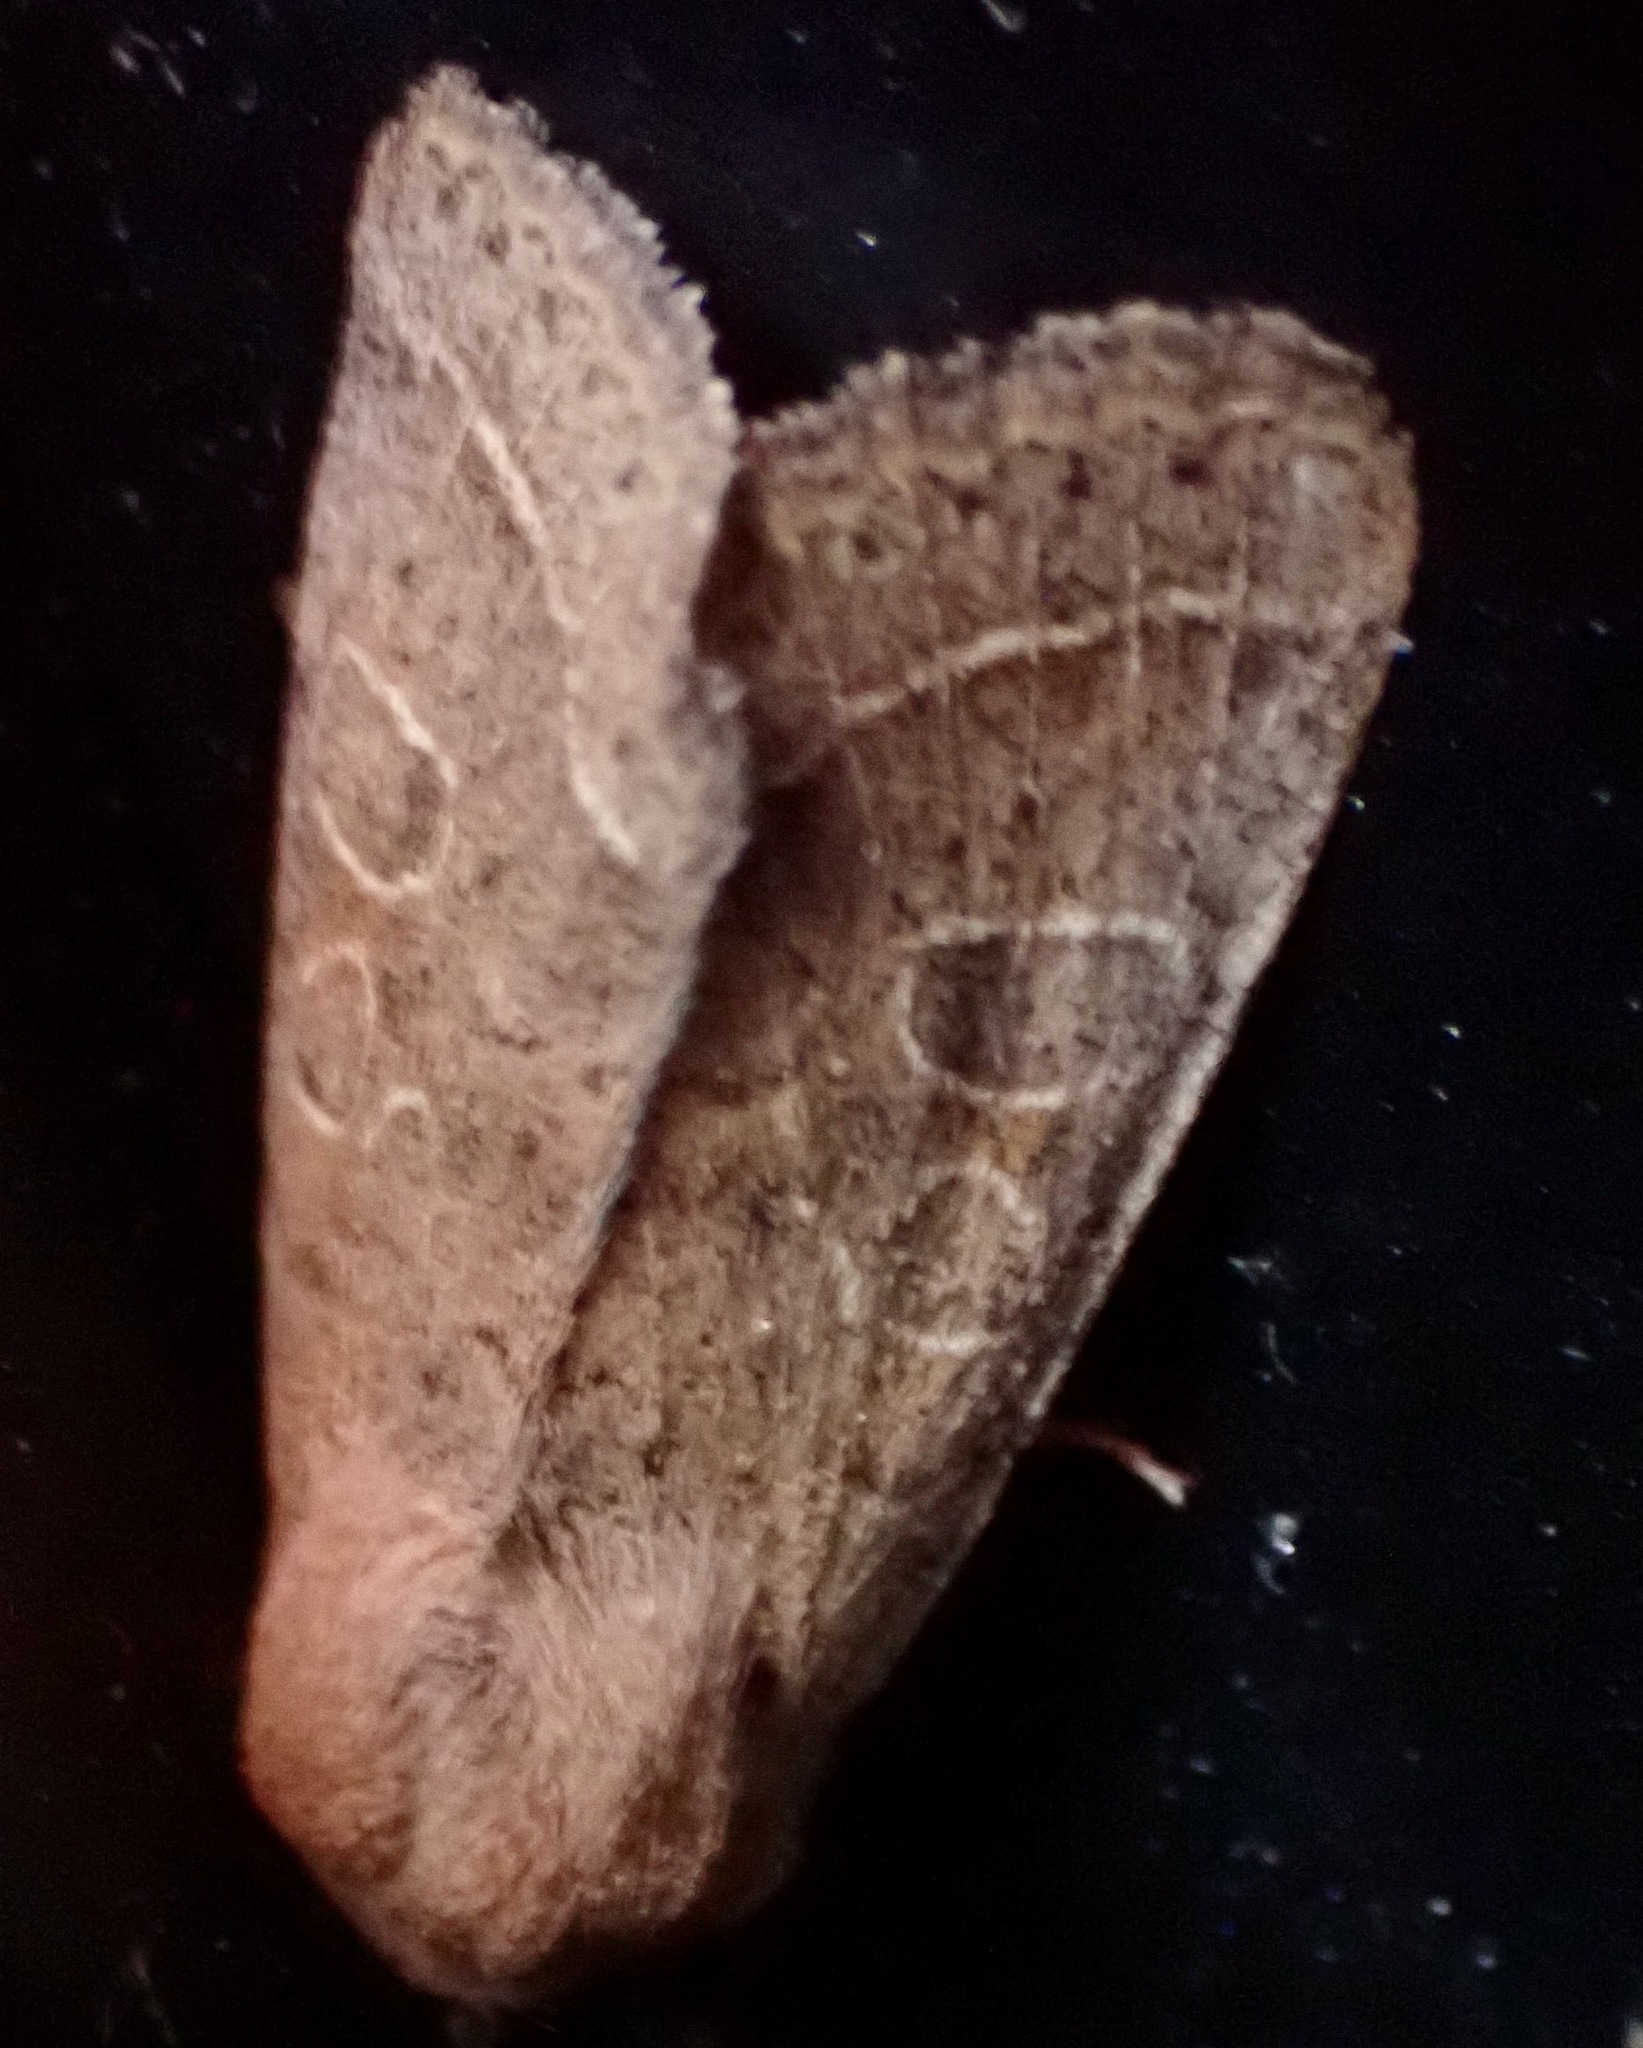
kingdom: Animalia
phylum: Arthropoda
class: Insecta
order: Lepidoptera
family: Noctuidae
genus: Orthosia
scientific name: Orthosia cerasi
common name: Common quaker
